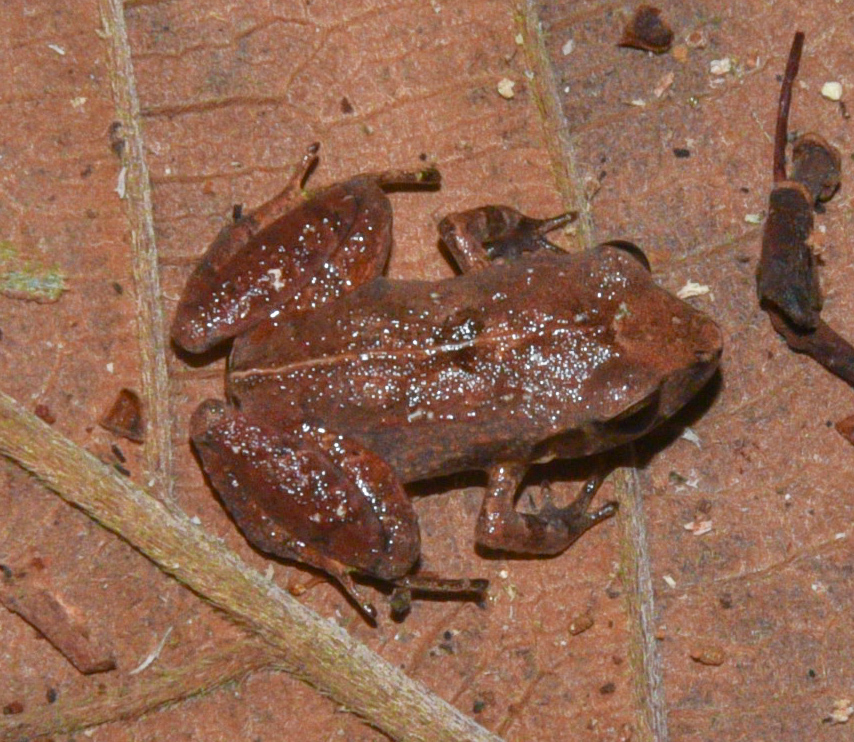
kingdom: Animalia
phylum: Chordata
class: Amphibia
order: Anura
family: Craugastoridae
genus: Craugastor
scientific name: Craugastor stejnegerianus
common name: Stejneger's robber frog
